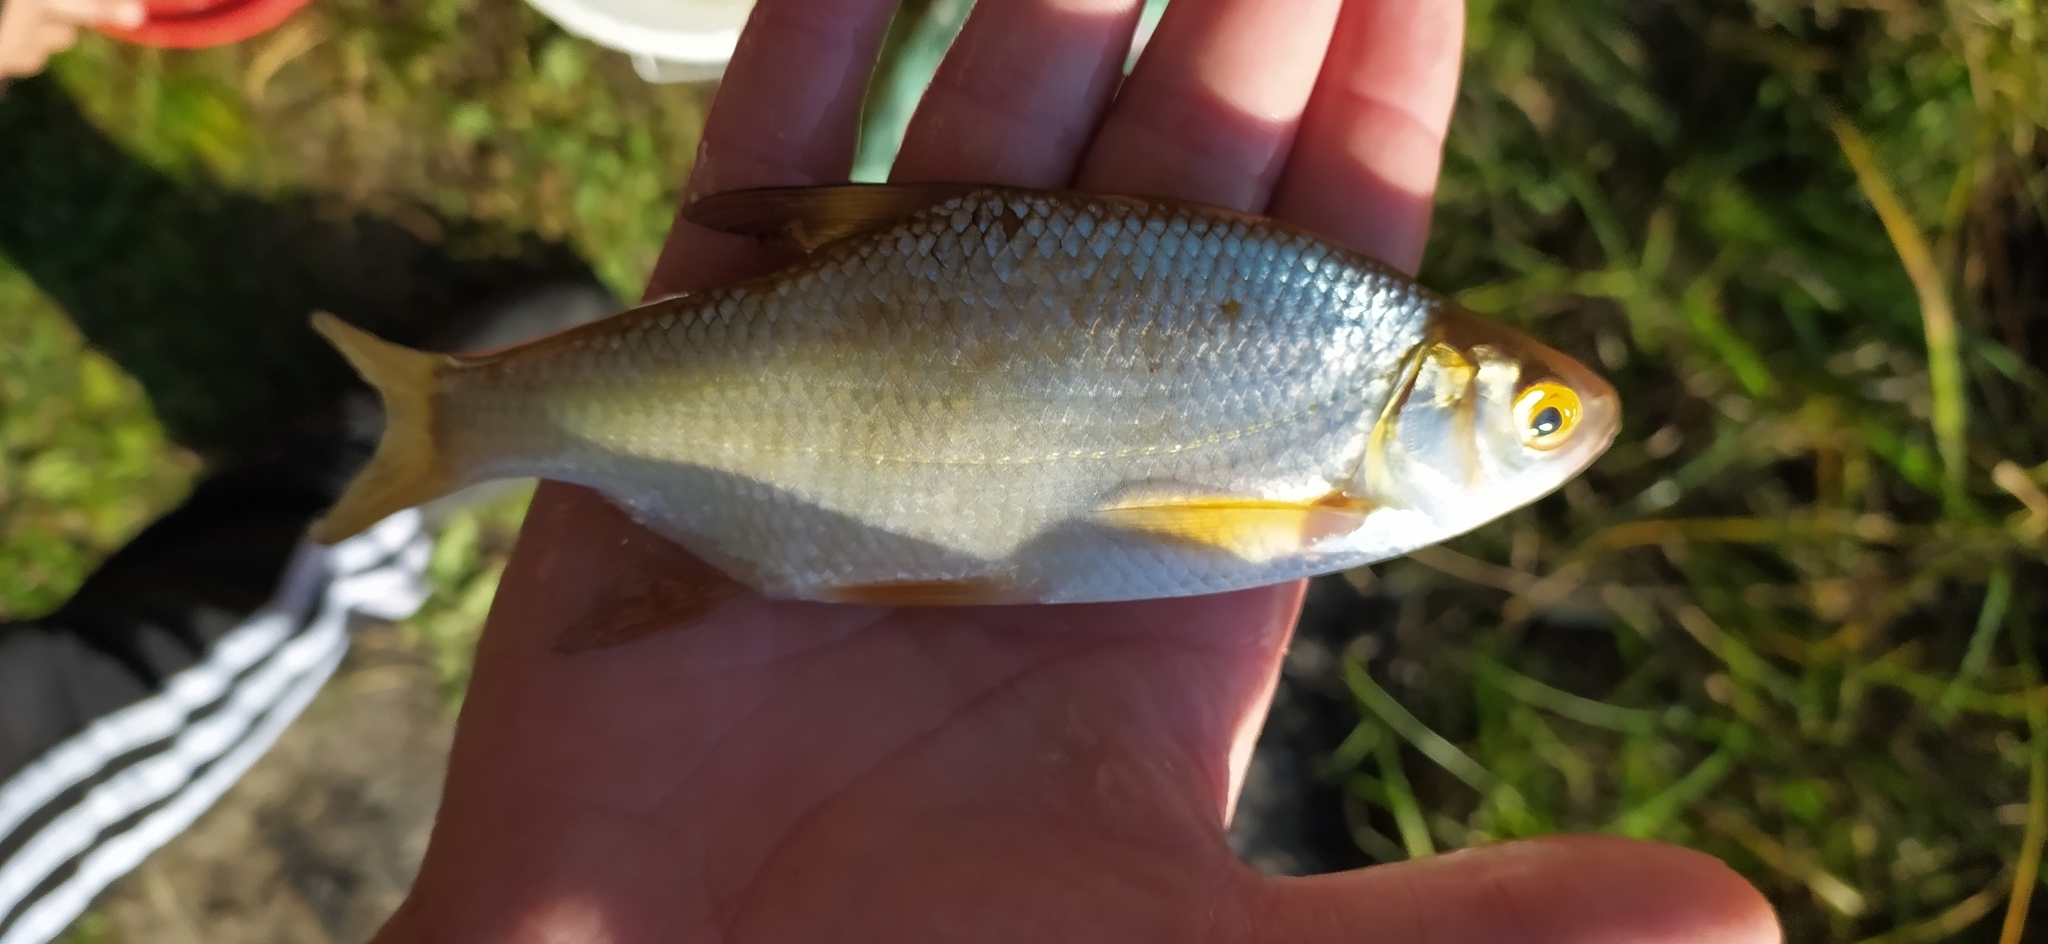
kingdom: Animalia
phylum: Chordata
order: Cypriniformes
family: Cyprinidae
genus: Rutilus
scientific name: Rutilus rutilus
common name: Roach
